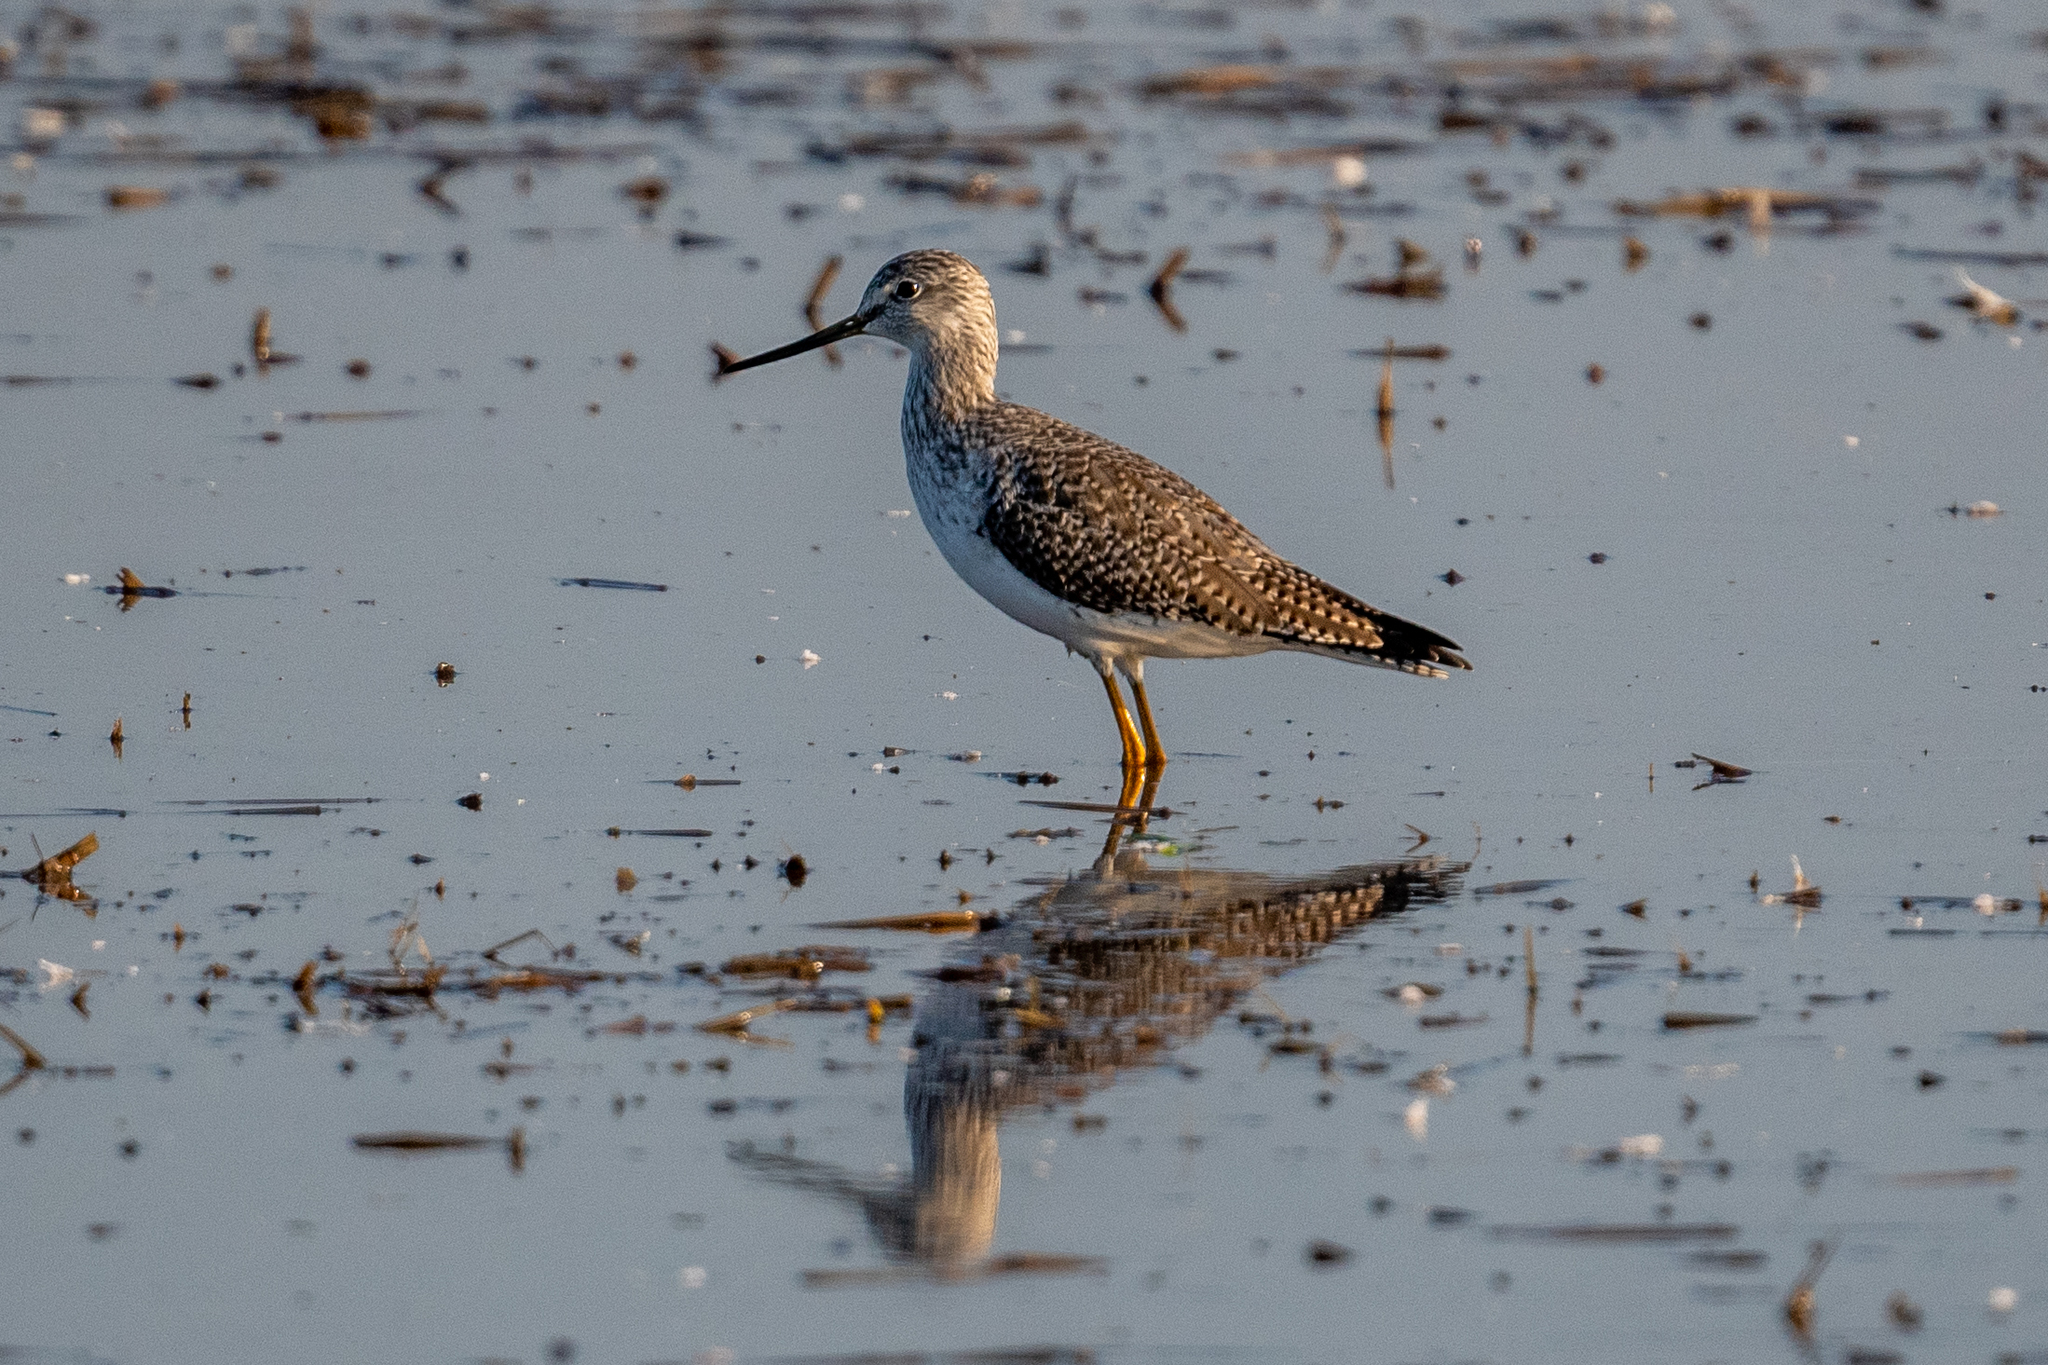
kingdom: Animalia
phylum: Chordata
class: Aves
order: Charadriiformes
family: Scolopacidae
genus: Tringa
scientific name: Tringa melanoleuca
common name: Greater yellowlegs
